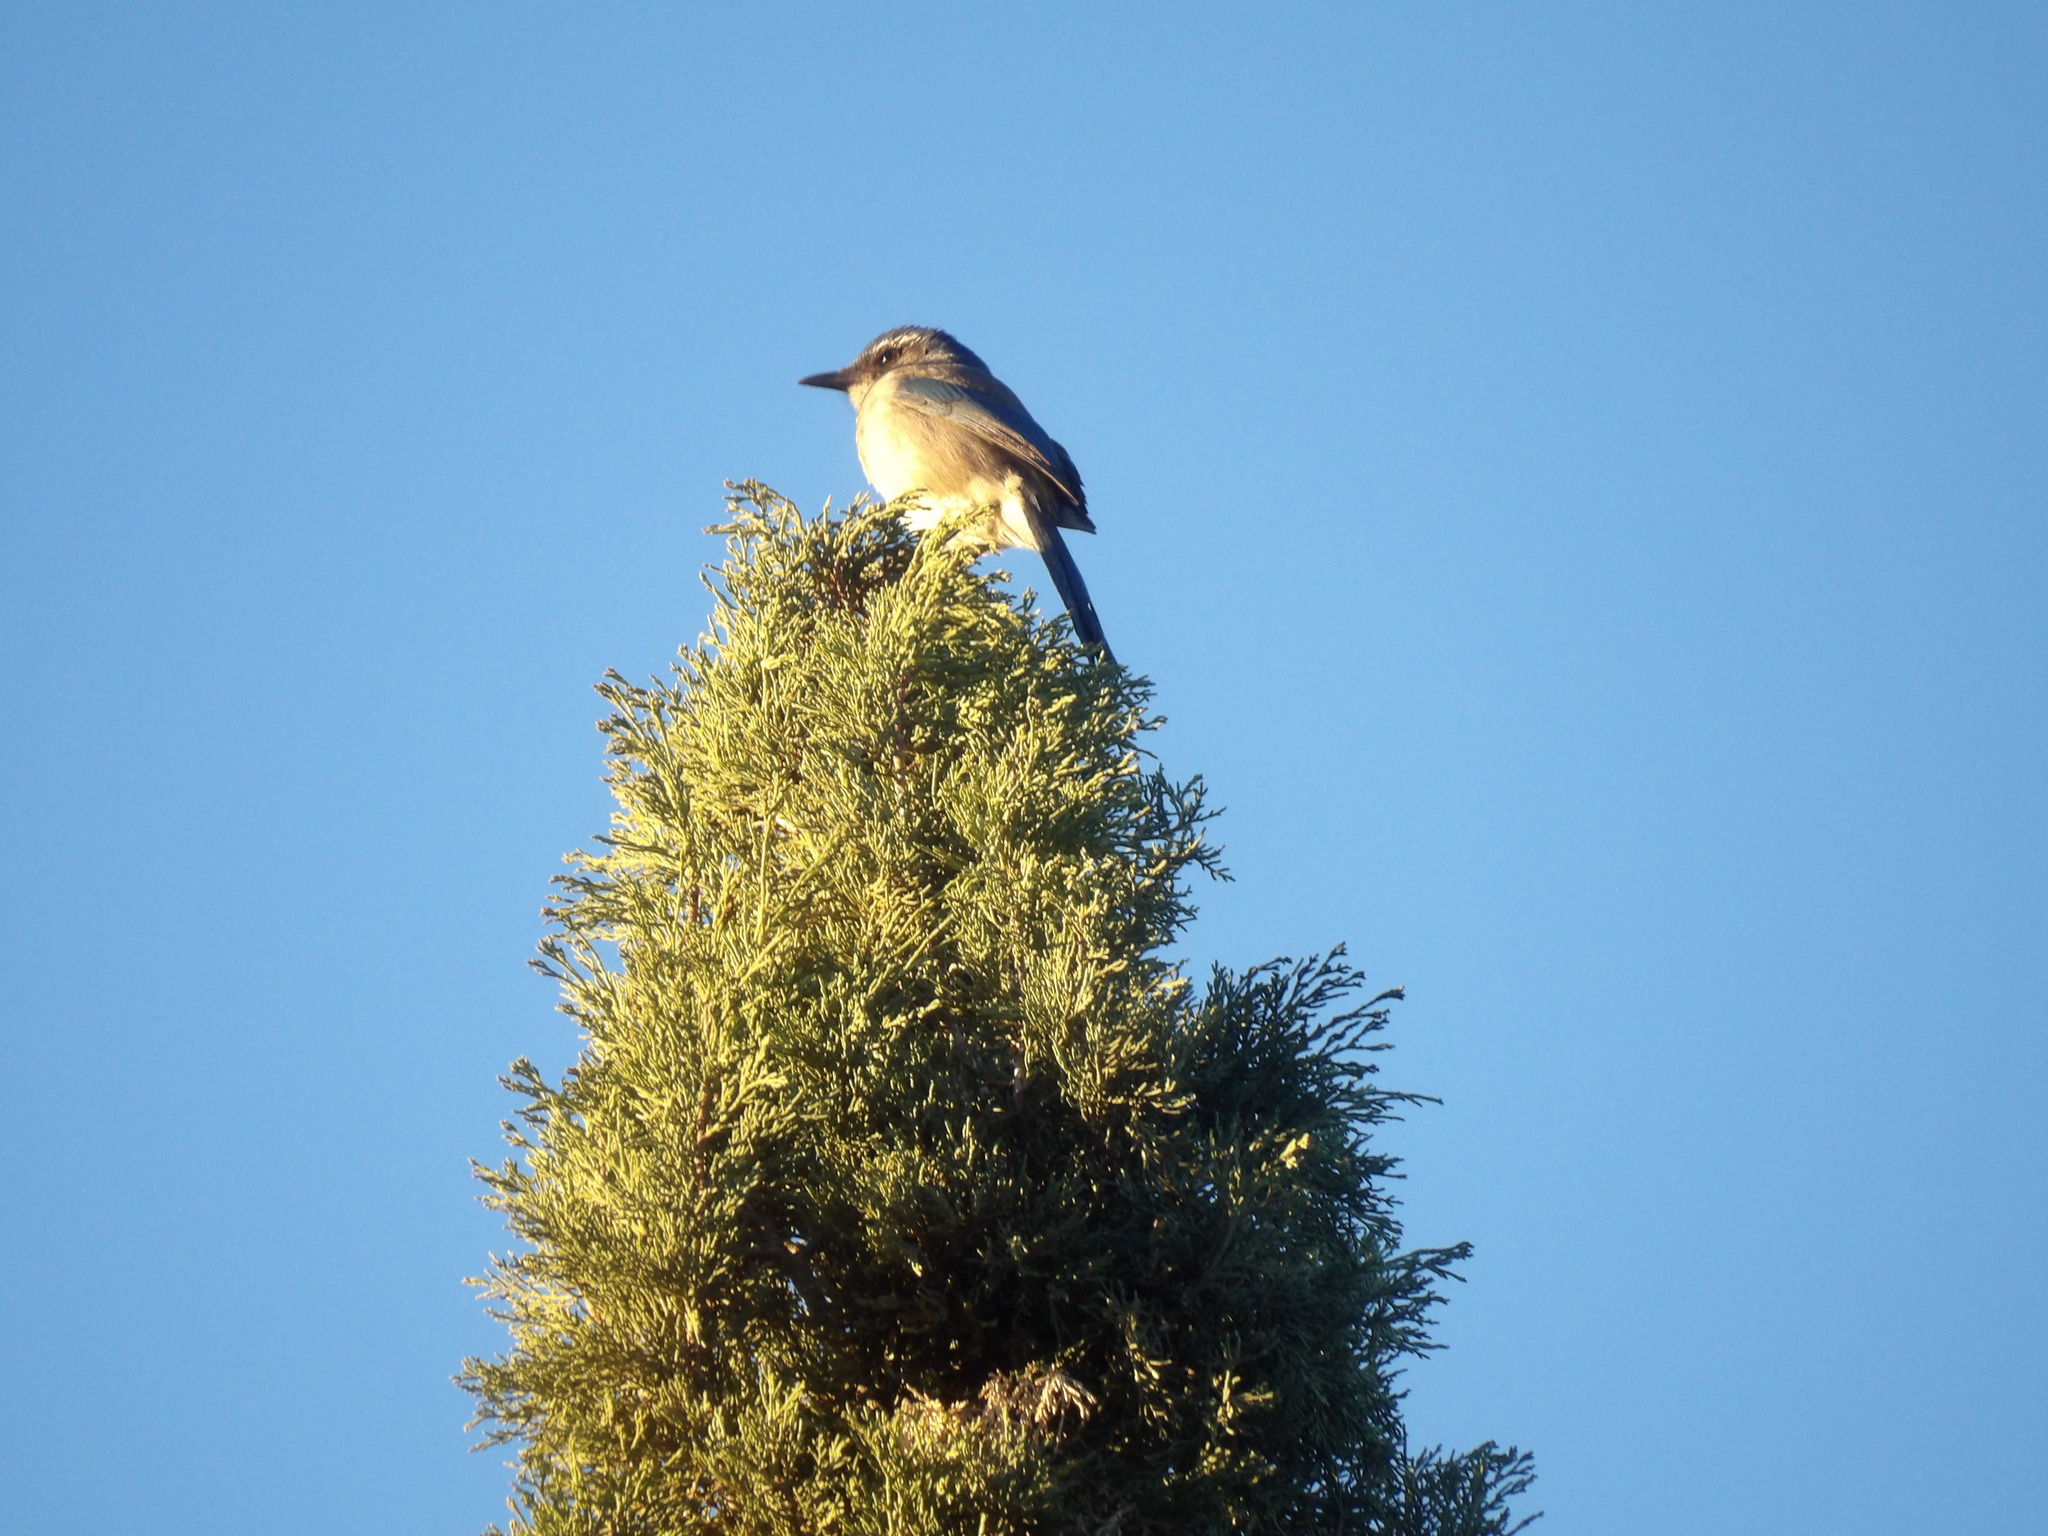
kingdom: Animalia
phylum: Chordata
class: Aves
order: Passeriformes
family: Corvidae
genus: Aphelocoma
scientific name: Aphelocoma californica
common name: California scrub-jay
